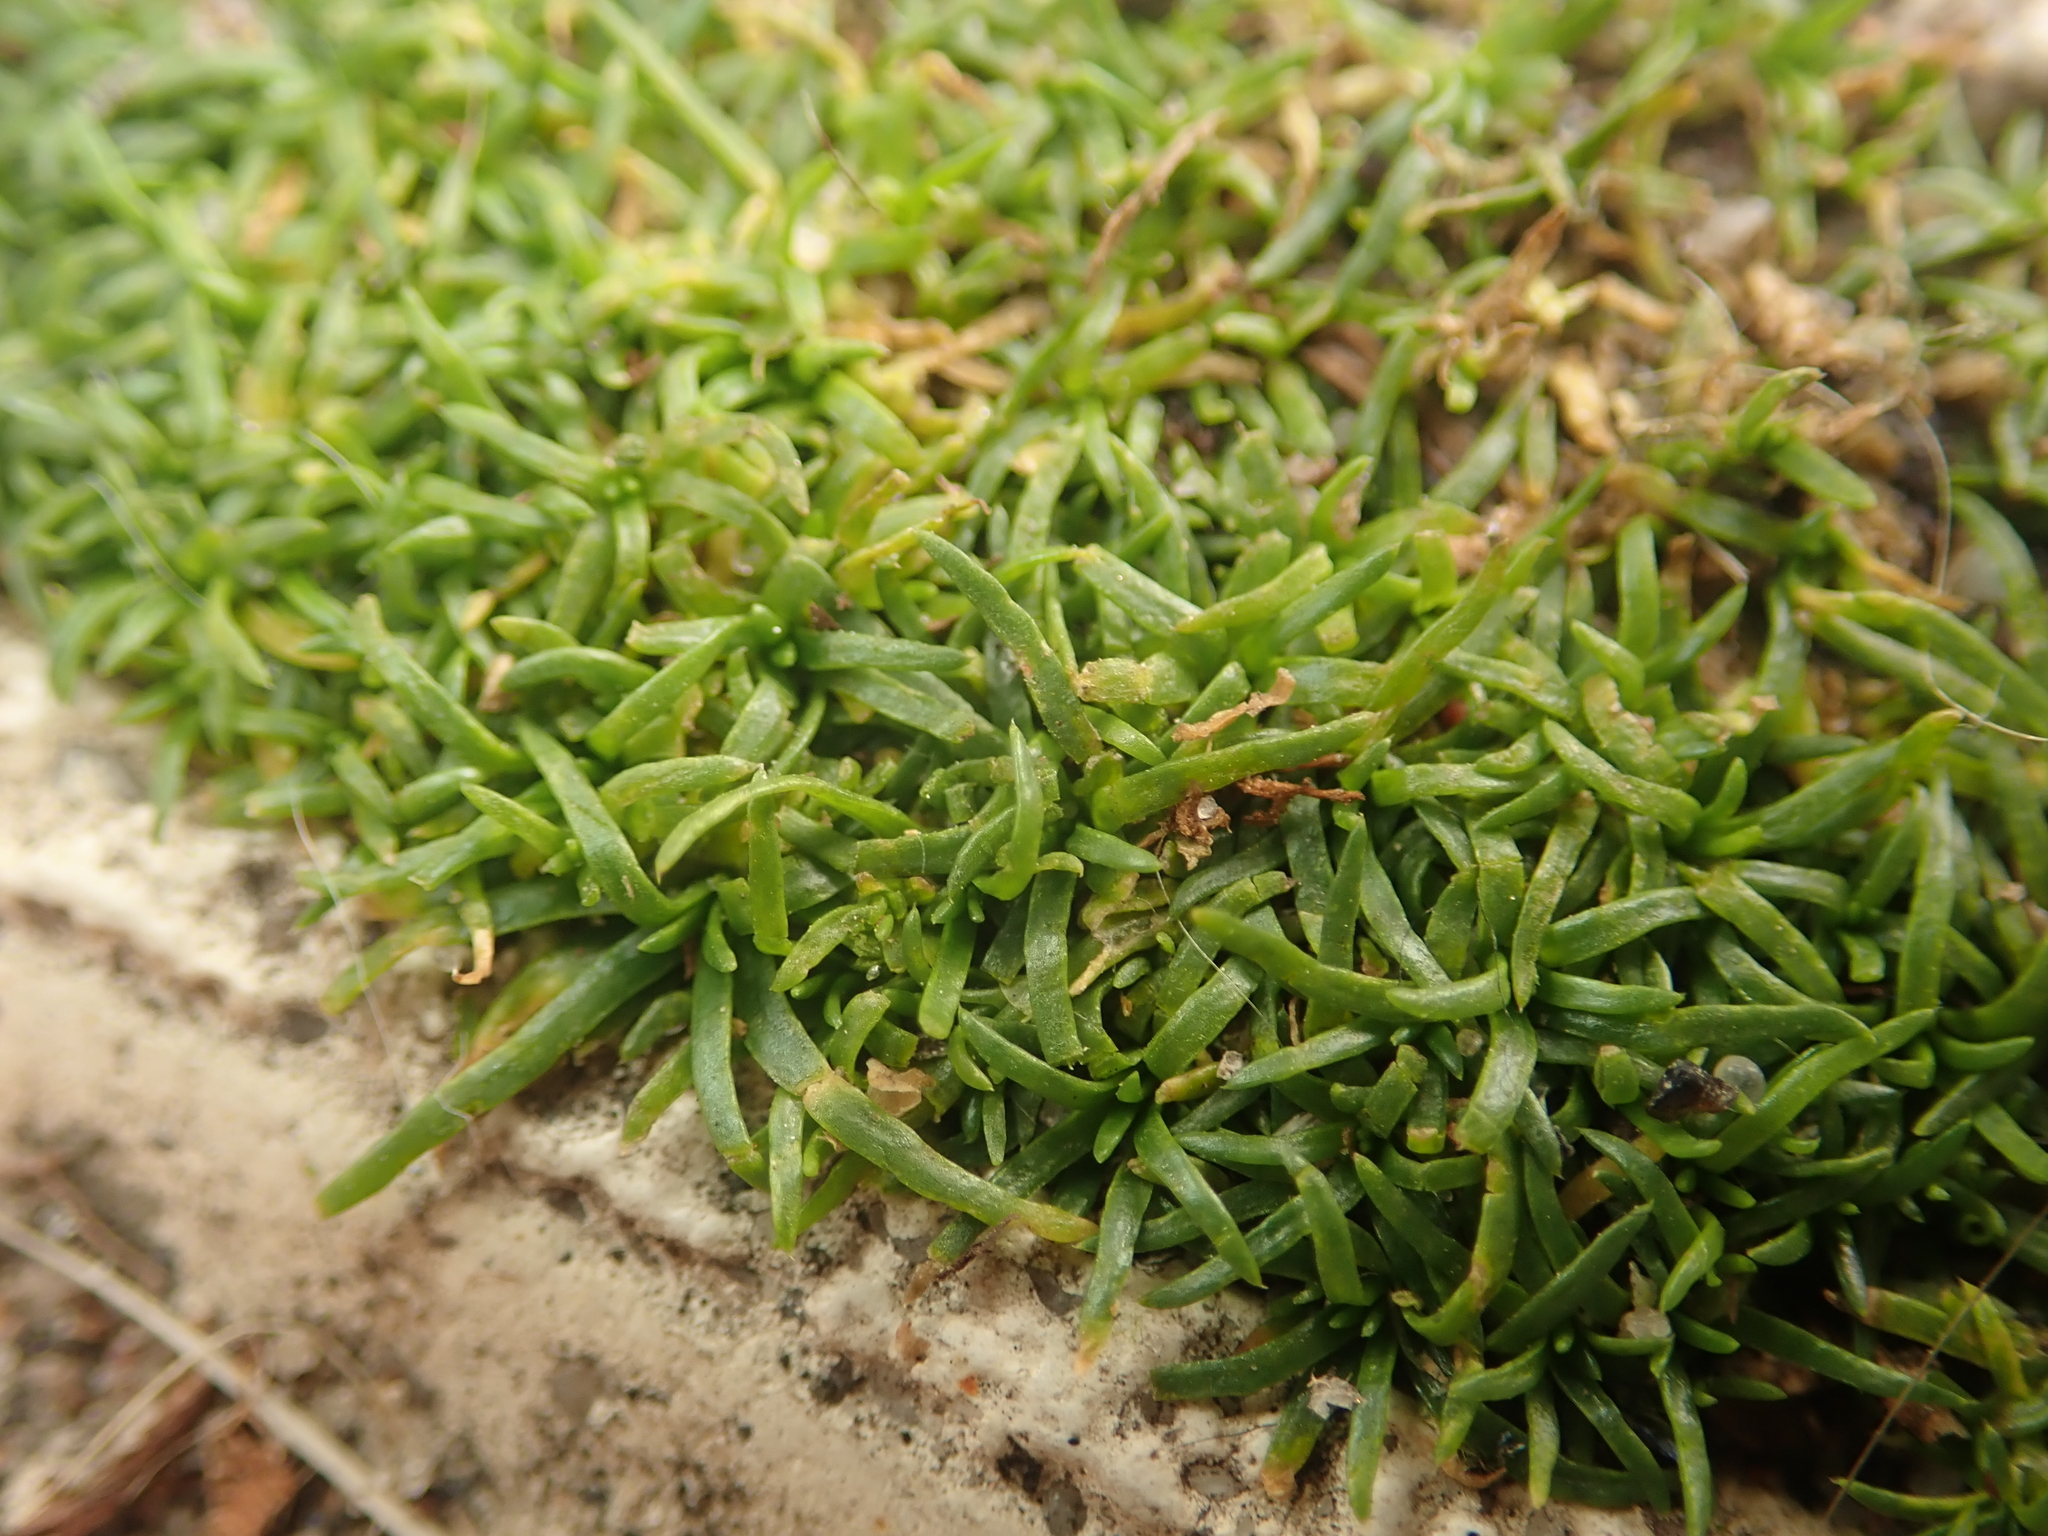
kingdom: Plantae
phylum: Tracheophyta
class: Magnoliopsida
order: Caryophyllales
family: Caryophyllaceae
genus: Sagina
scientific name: Sagina procumbens
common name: Procumbent pearlwort
